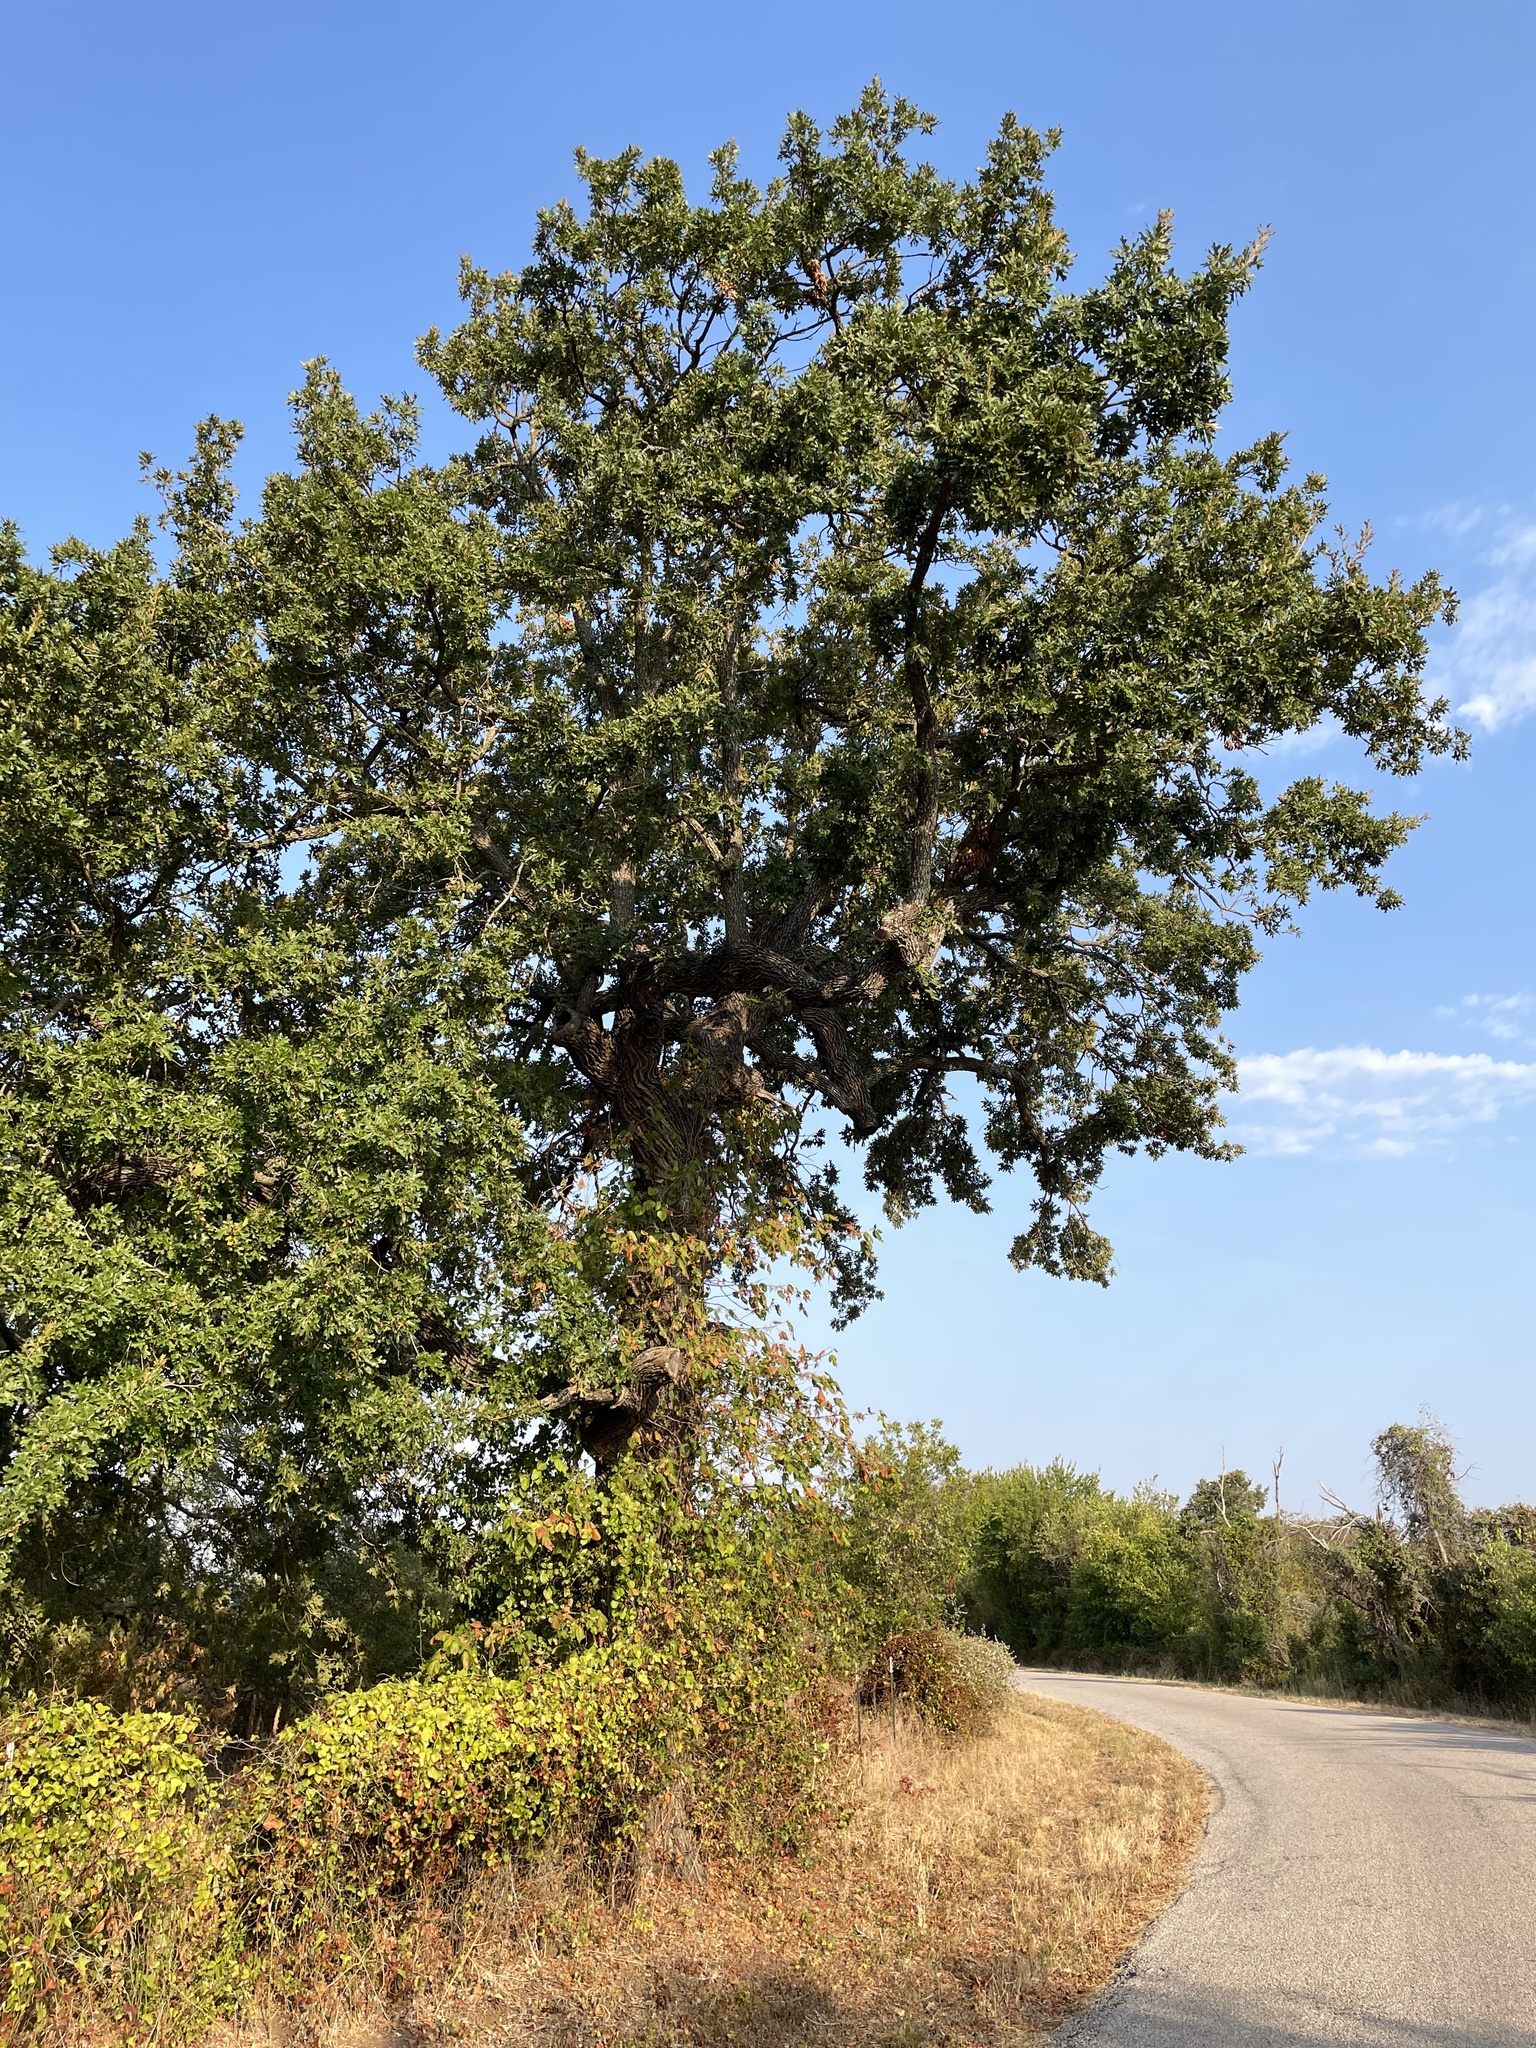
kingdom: Plantae
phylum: Tracheophyta
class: Magnoliopsida
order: Fagales
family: Fagaceae
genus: Quercus
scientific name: Quercus stellata
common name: Post oak
